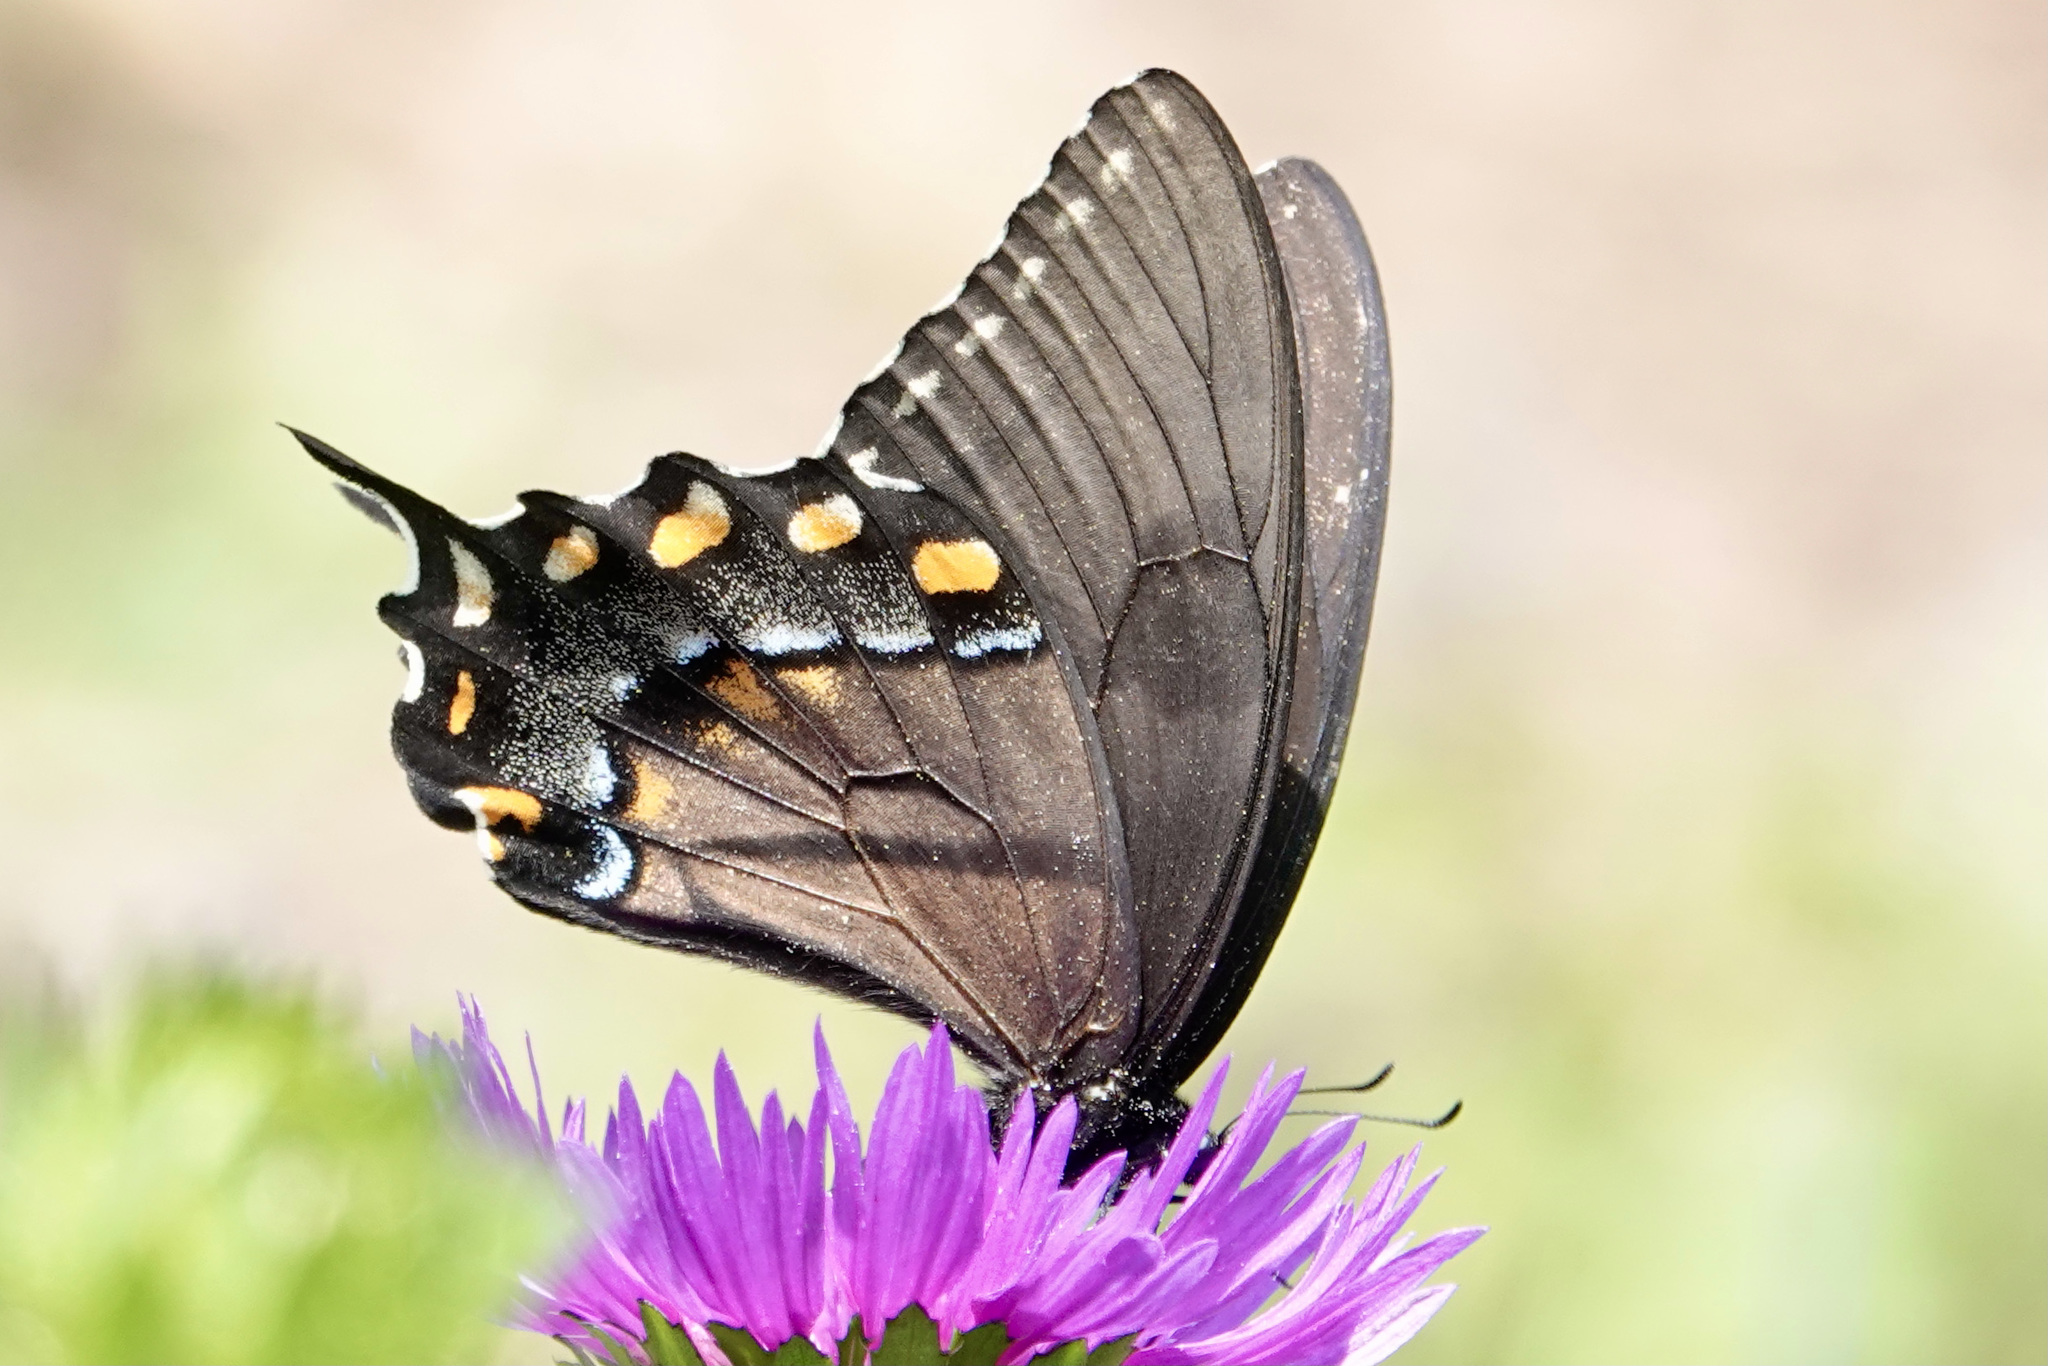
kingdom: Animalia
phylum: Arthropoda
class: Insecta
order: Lepidoptera
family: Papilionidae
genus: Papilio
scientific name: Papilio glaucus
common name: Tiger swallowtail
